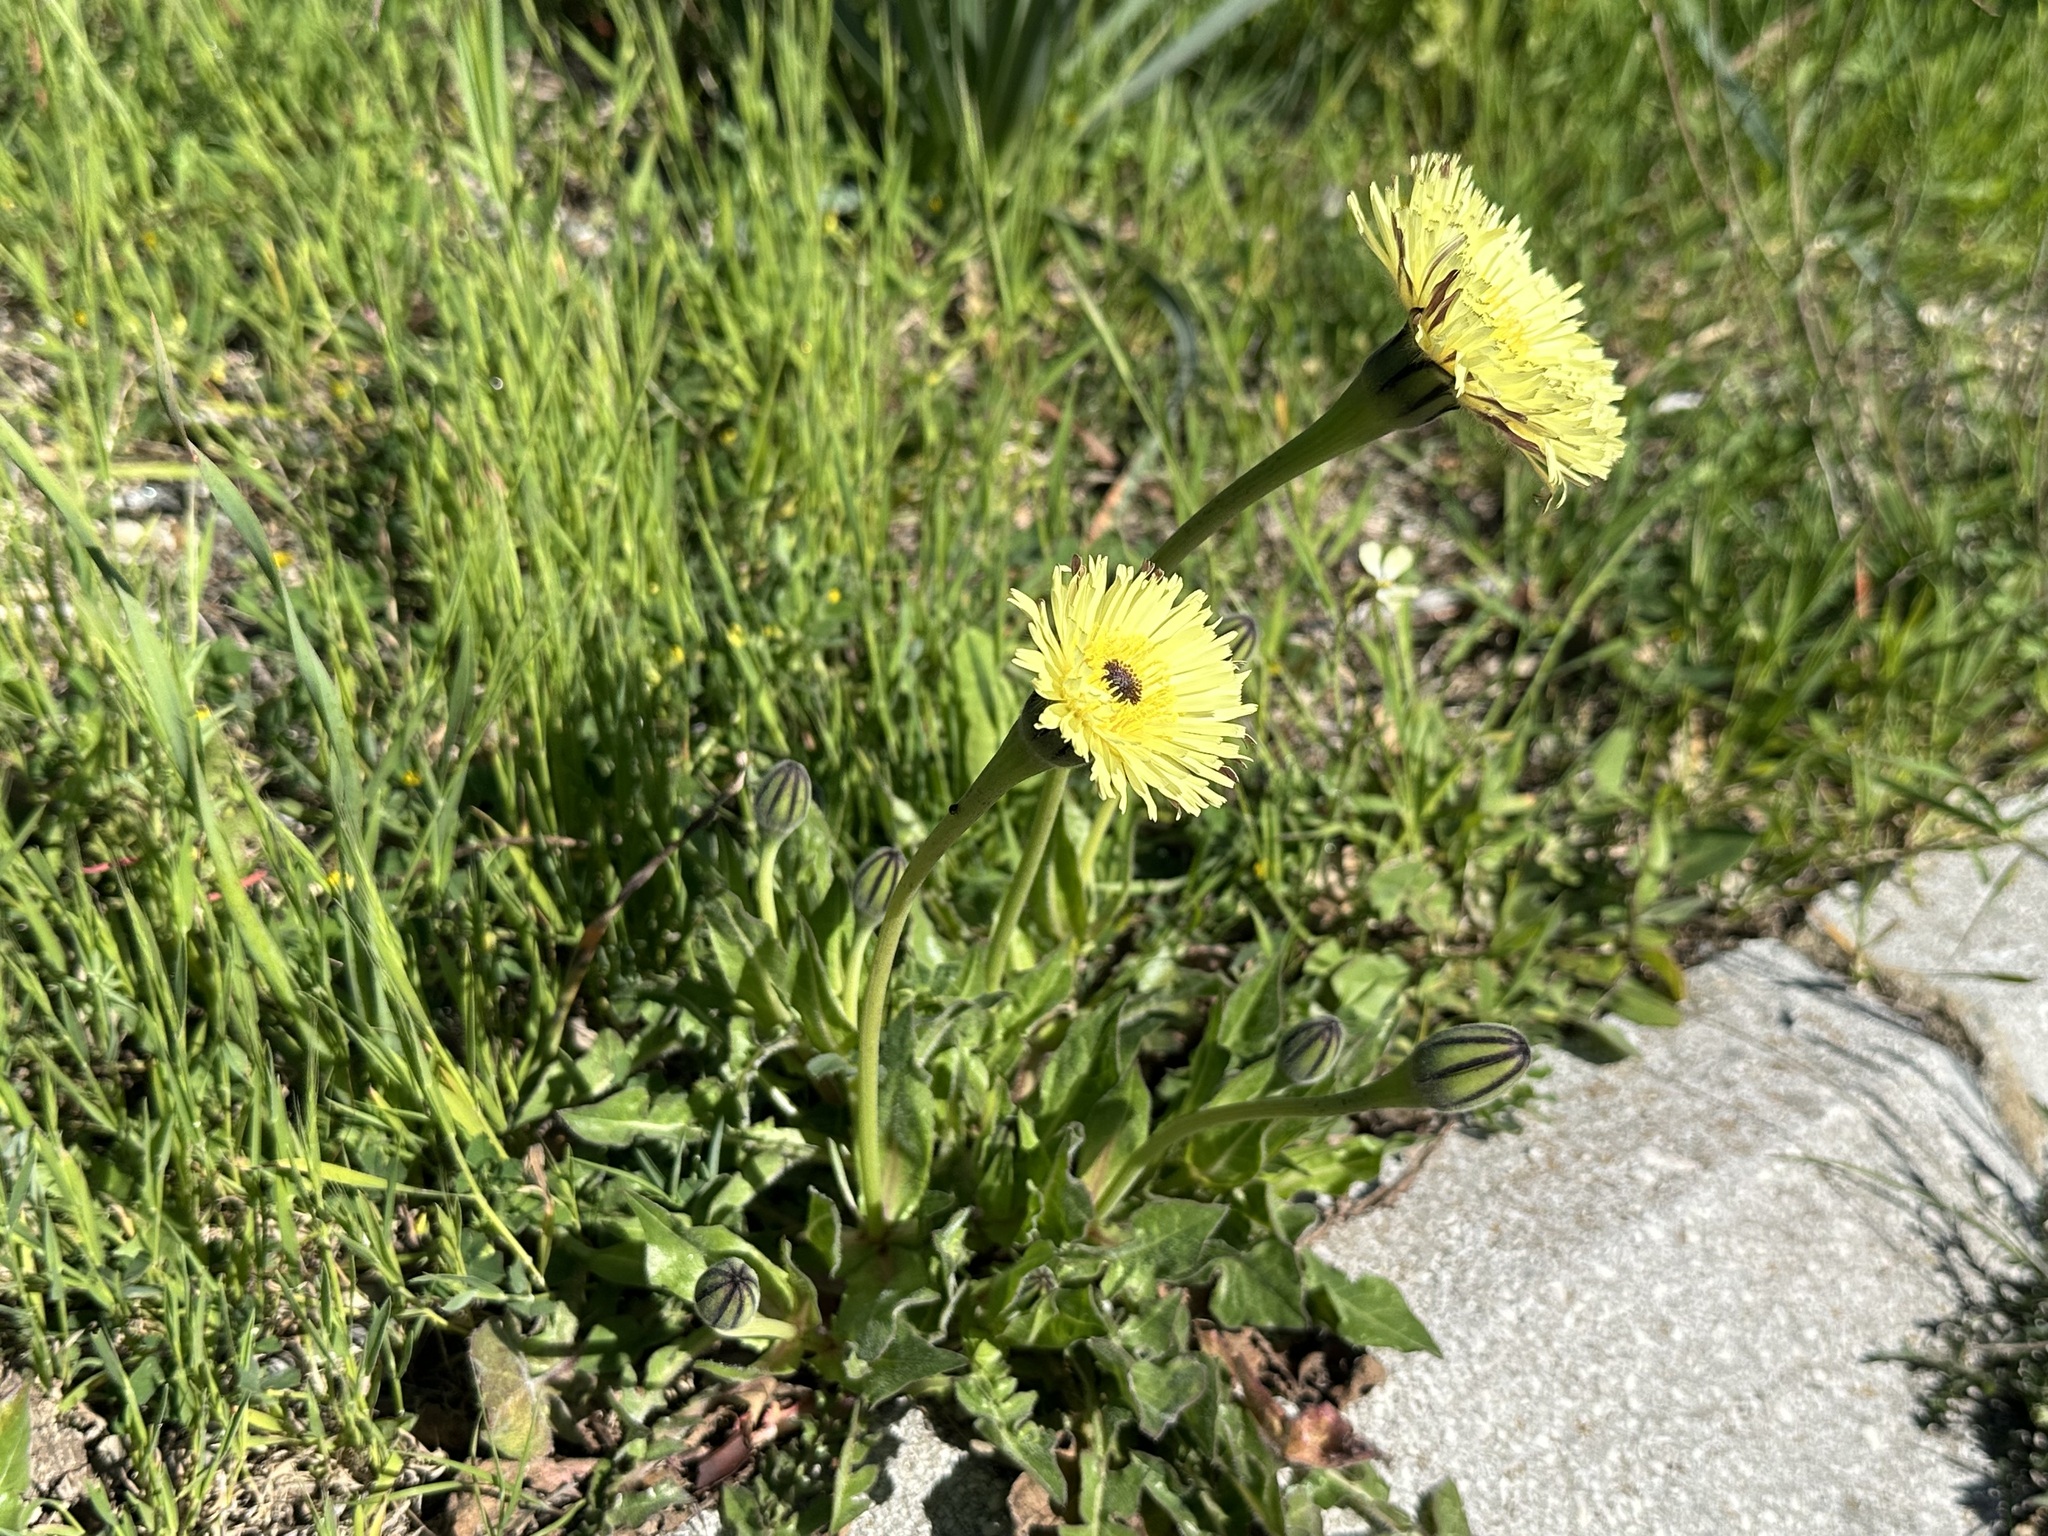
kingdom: Plantae
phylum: Tracheophyta
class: Magnoliopsida
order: Asterales
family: Asteraceae
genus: Urospermum
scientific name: Urospermum dalechampii
